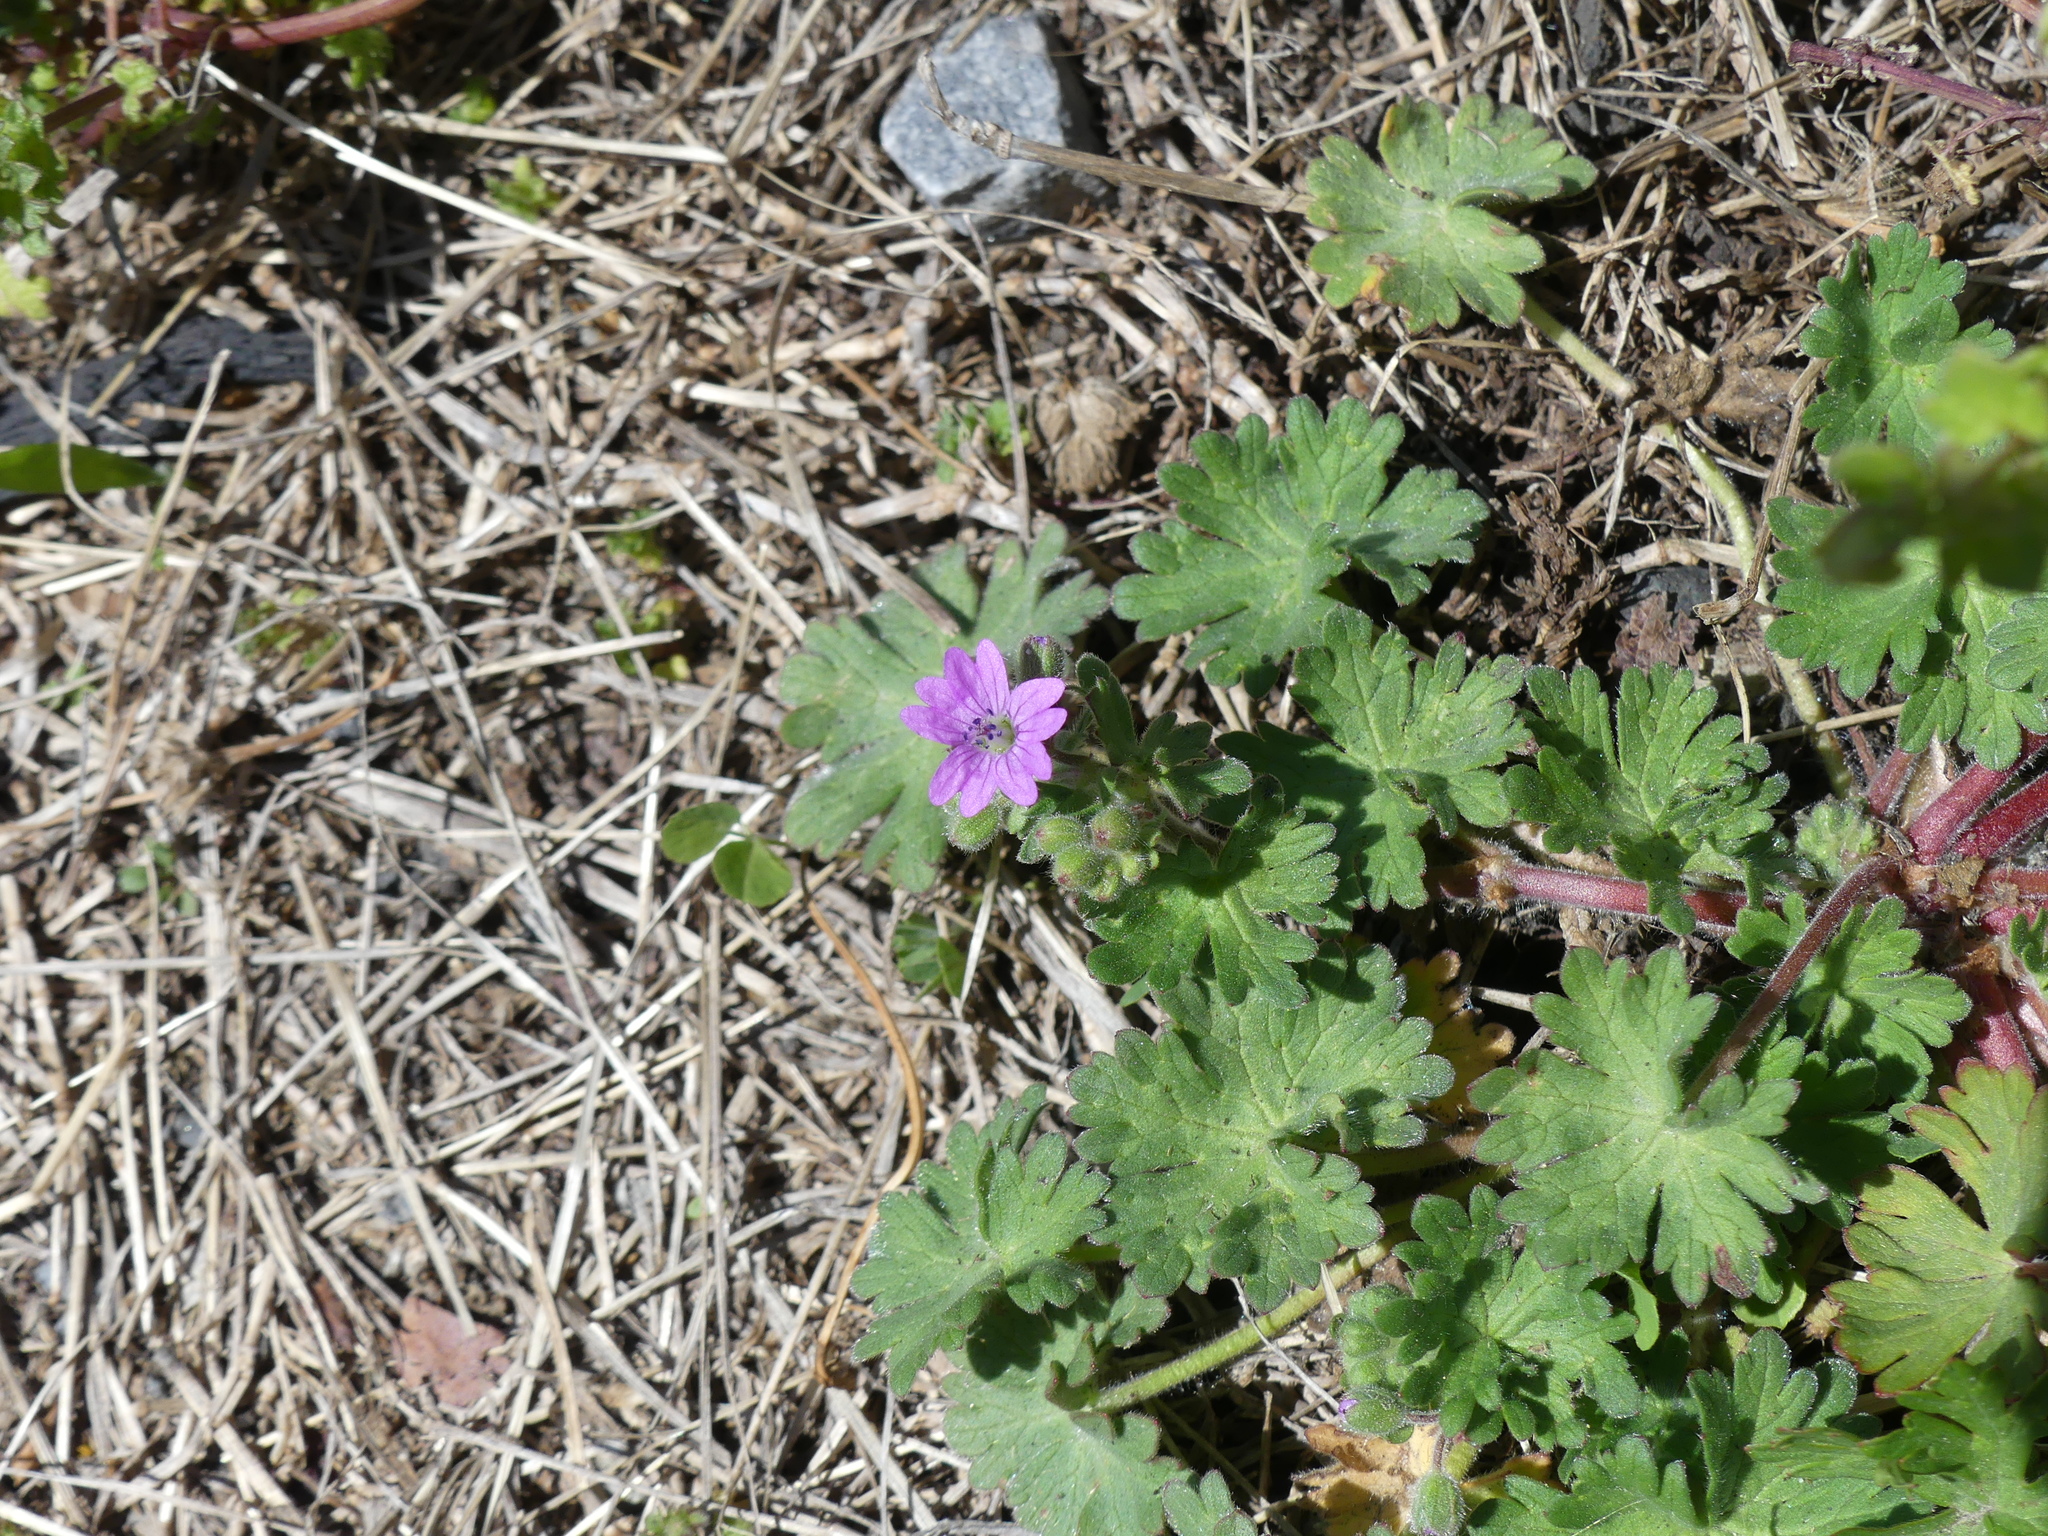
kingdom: Plantae
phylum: Tracheophyta
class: Magnoliopsida
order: Geraniales
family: Geraniaceae
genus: Geranium
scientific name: Geranium molle
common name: Dove's-foot crane's-bill
